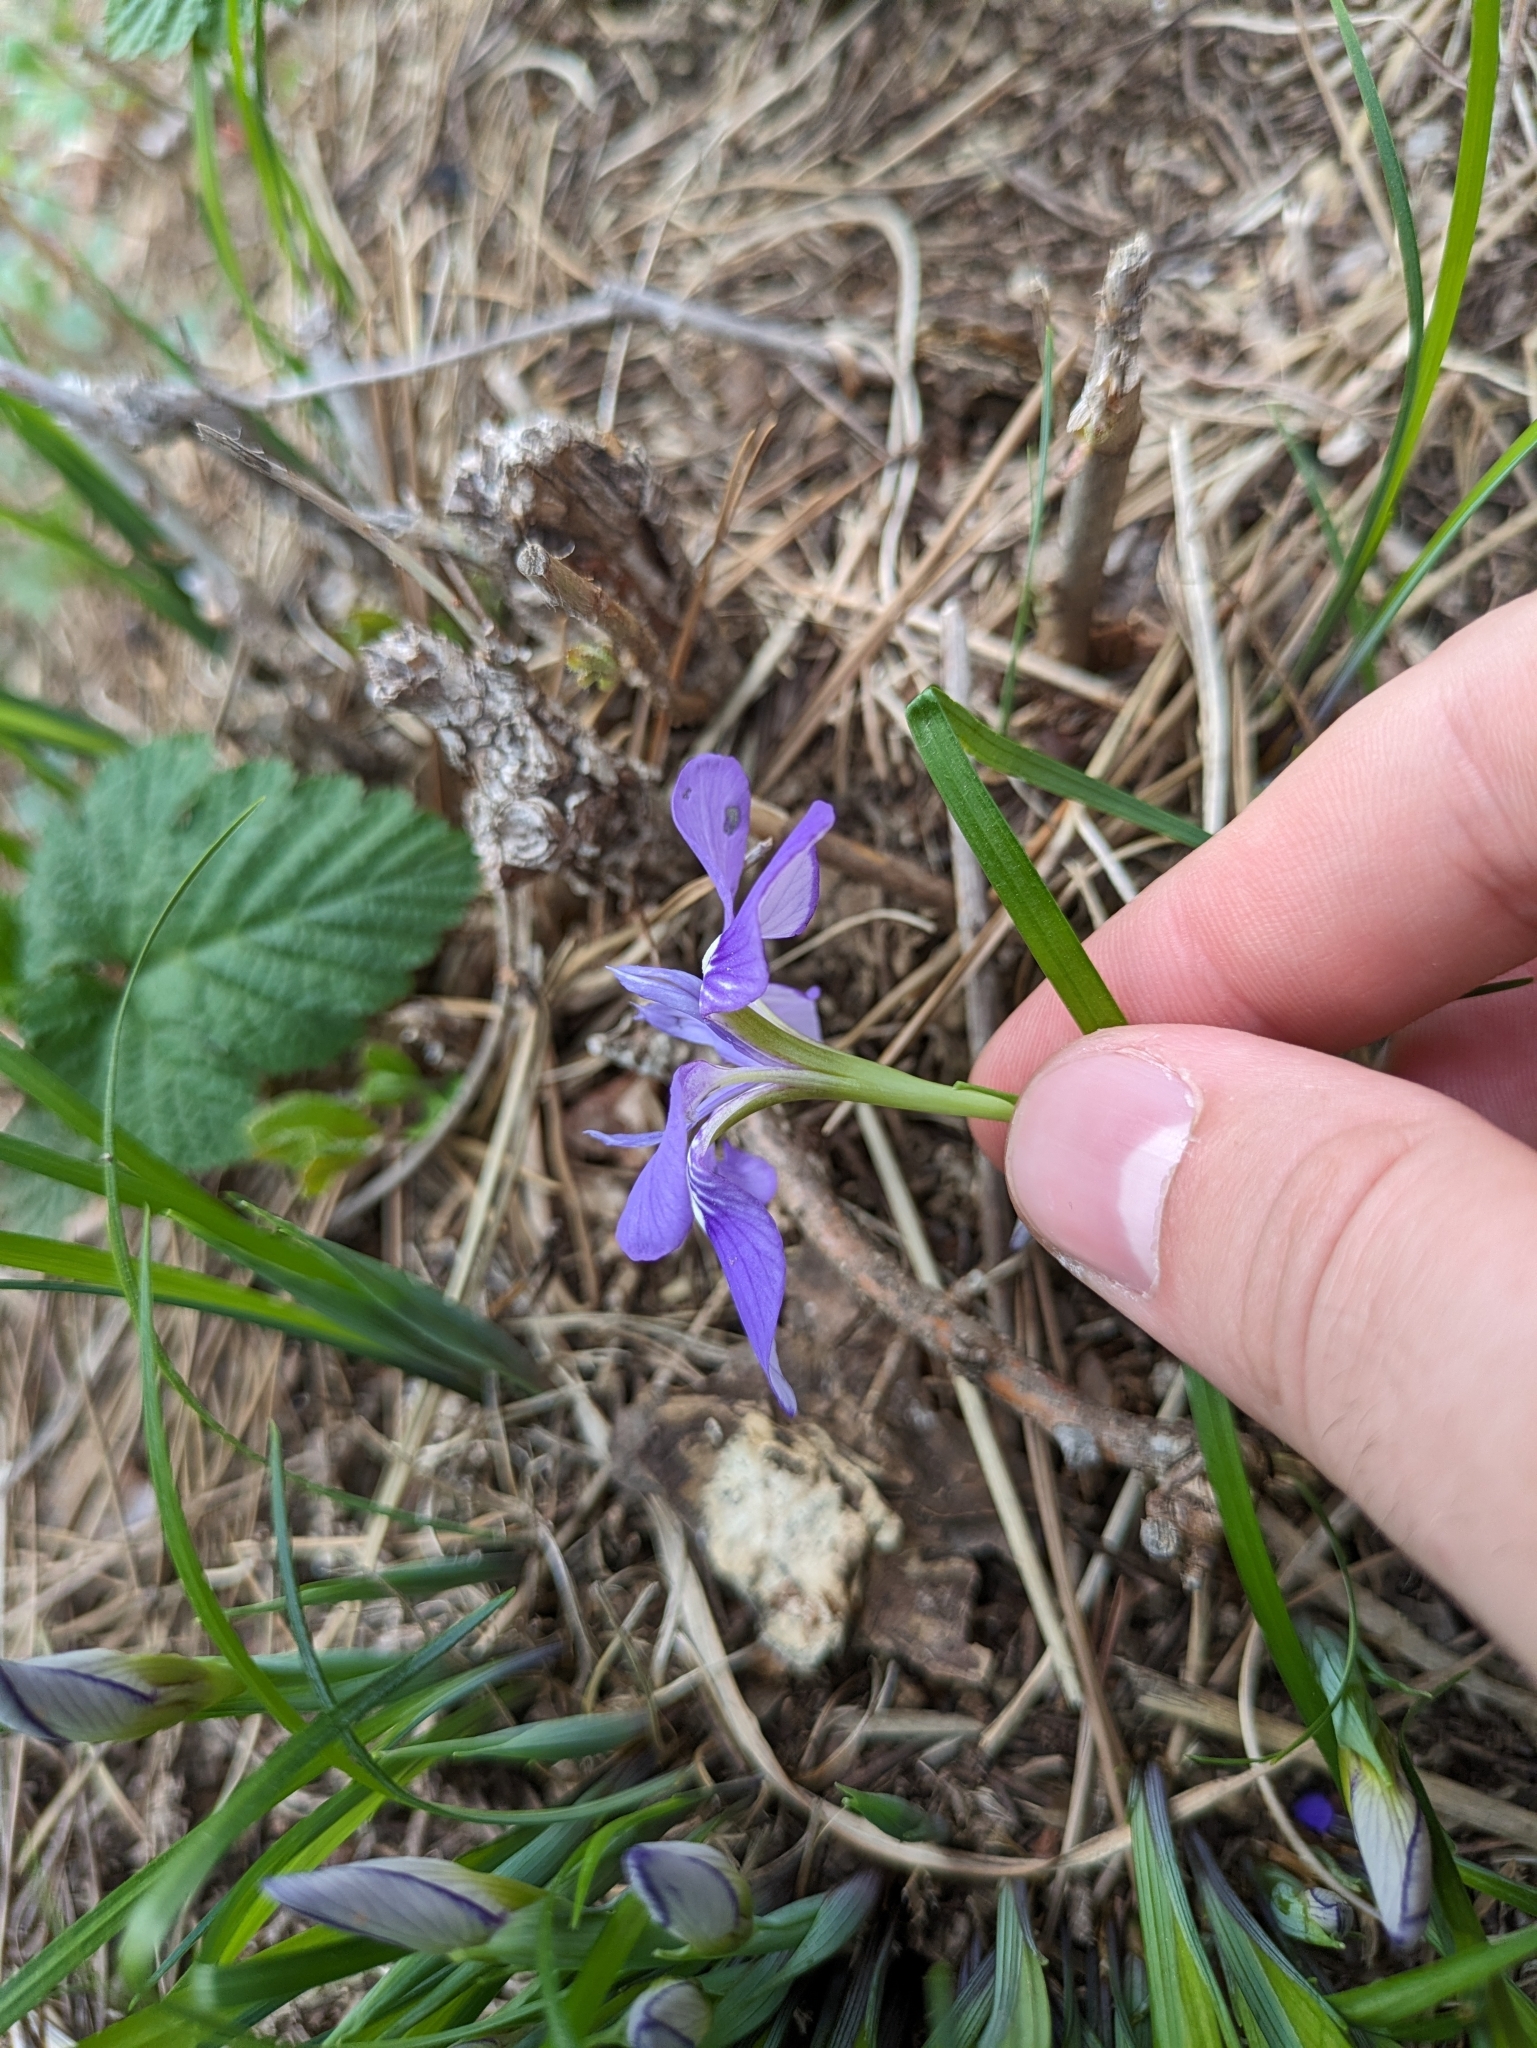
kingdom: Plantae
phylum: Tracheophyta
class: Liliopsida
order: Asparagales
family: Iridaceae
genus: Iris
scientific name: Iris rossii
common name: Long-tail iris
